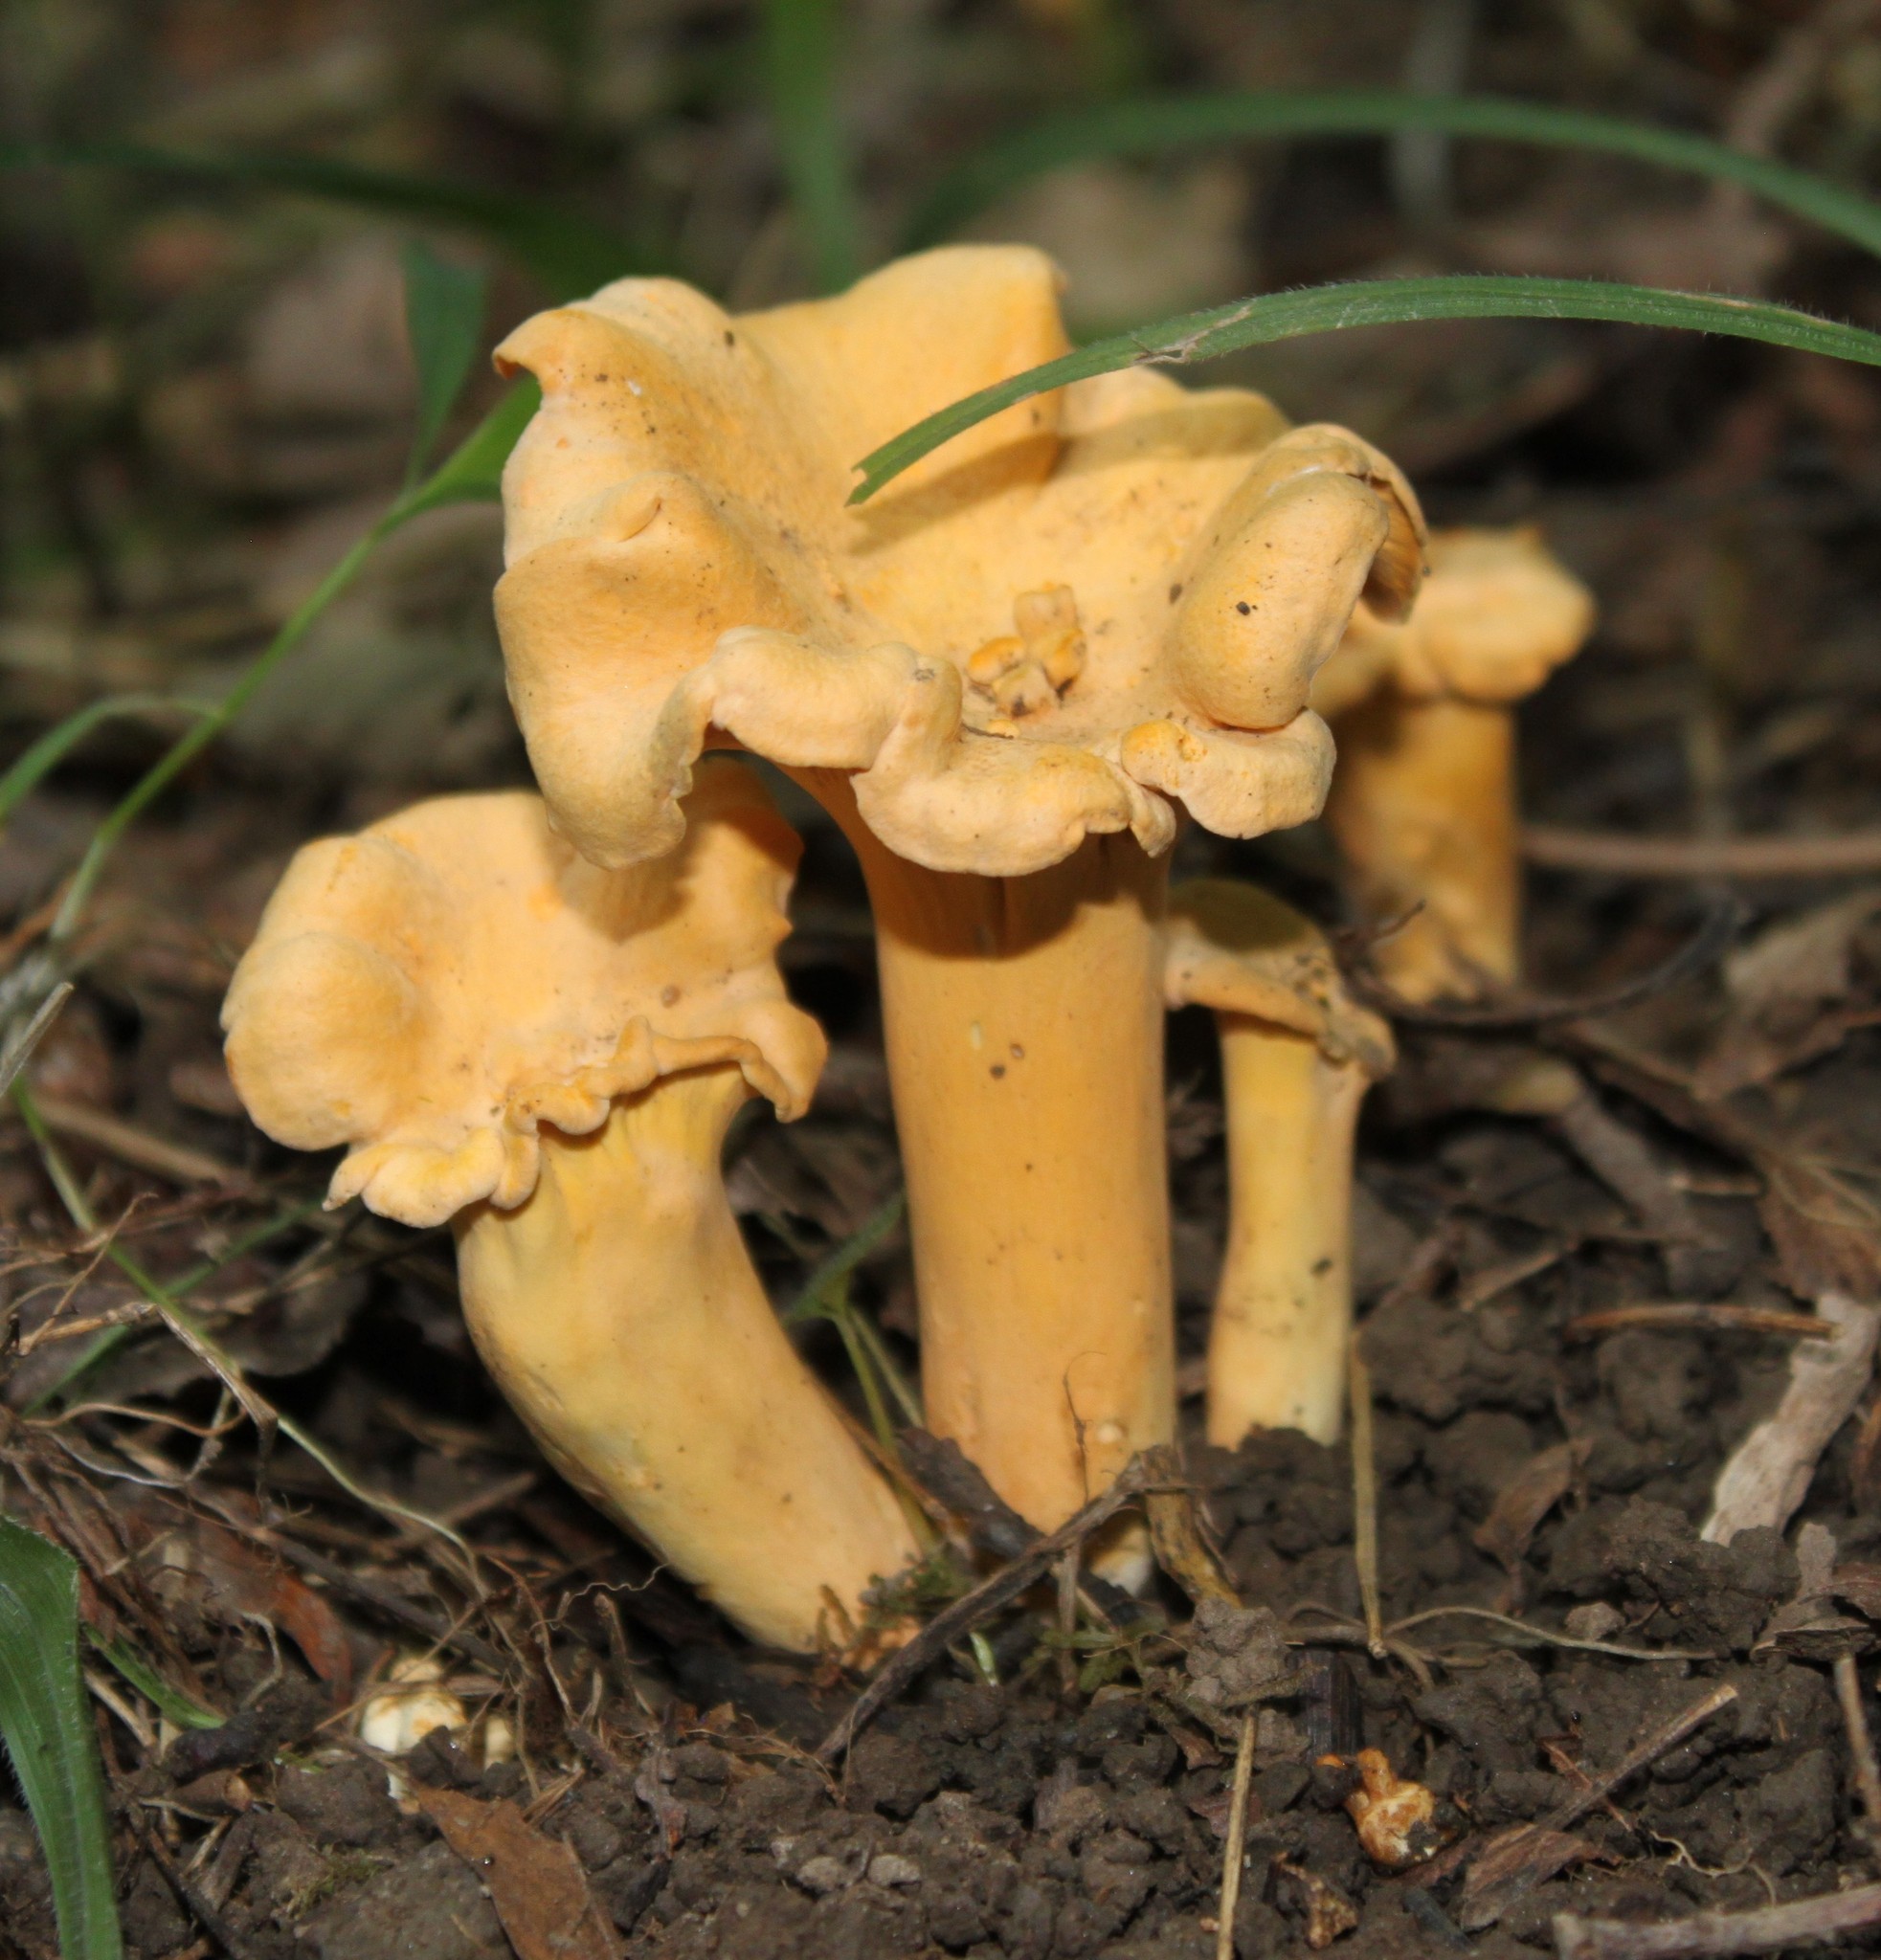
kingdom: Fungi
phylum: Basidiomycota
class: Agaricomycetes
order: Cantharellales
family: Hydnaceae
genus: Cantharellus
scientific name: Cantharellus lateritius
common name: Smooth chanterelle
